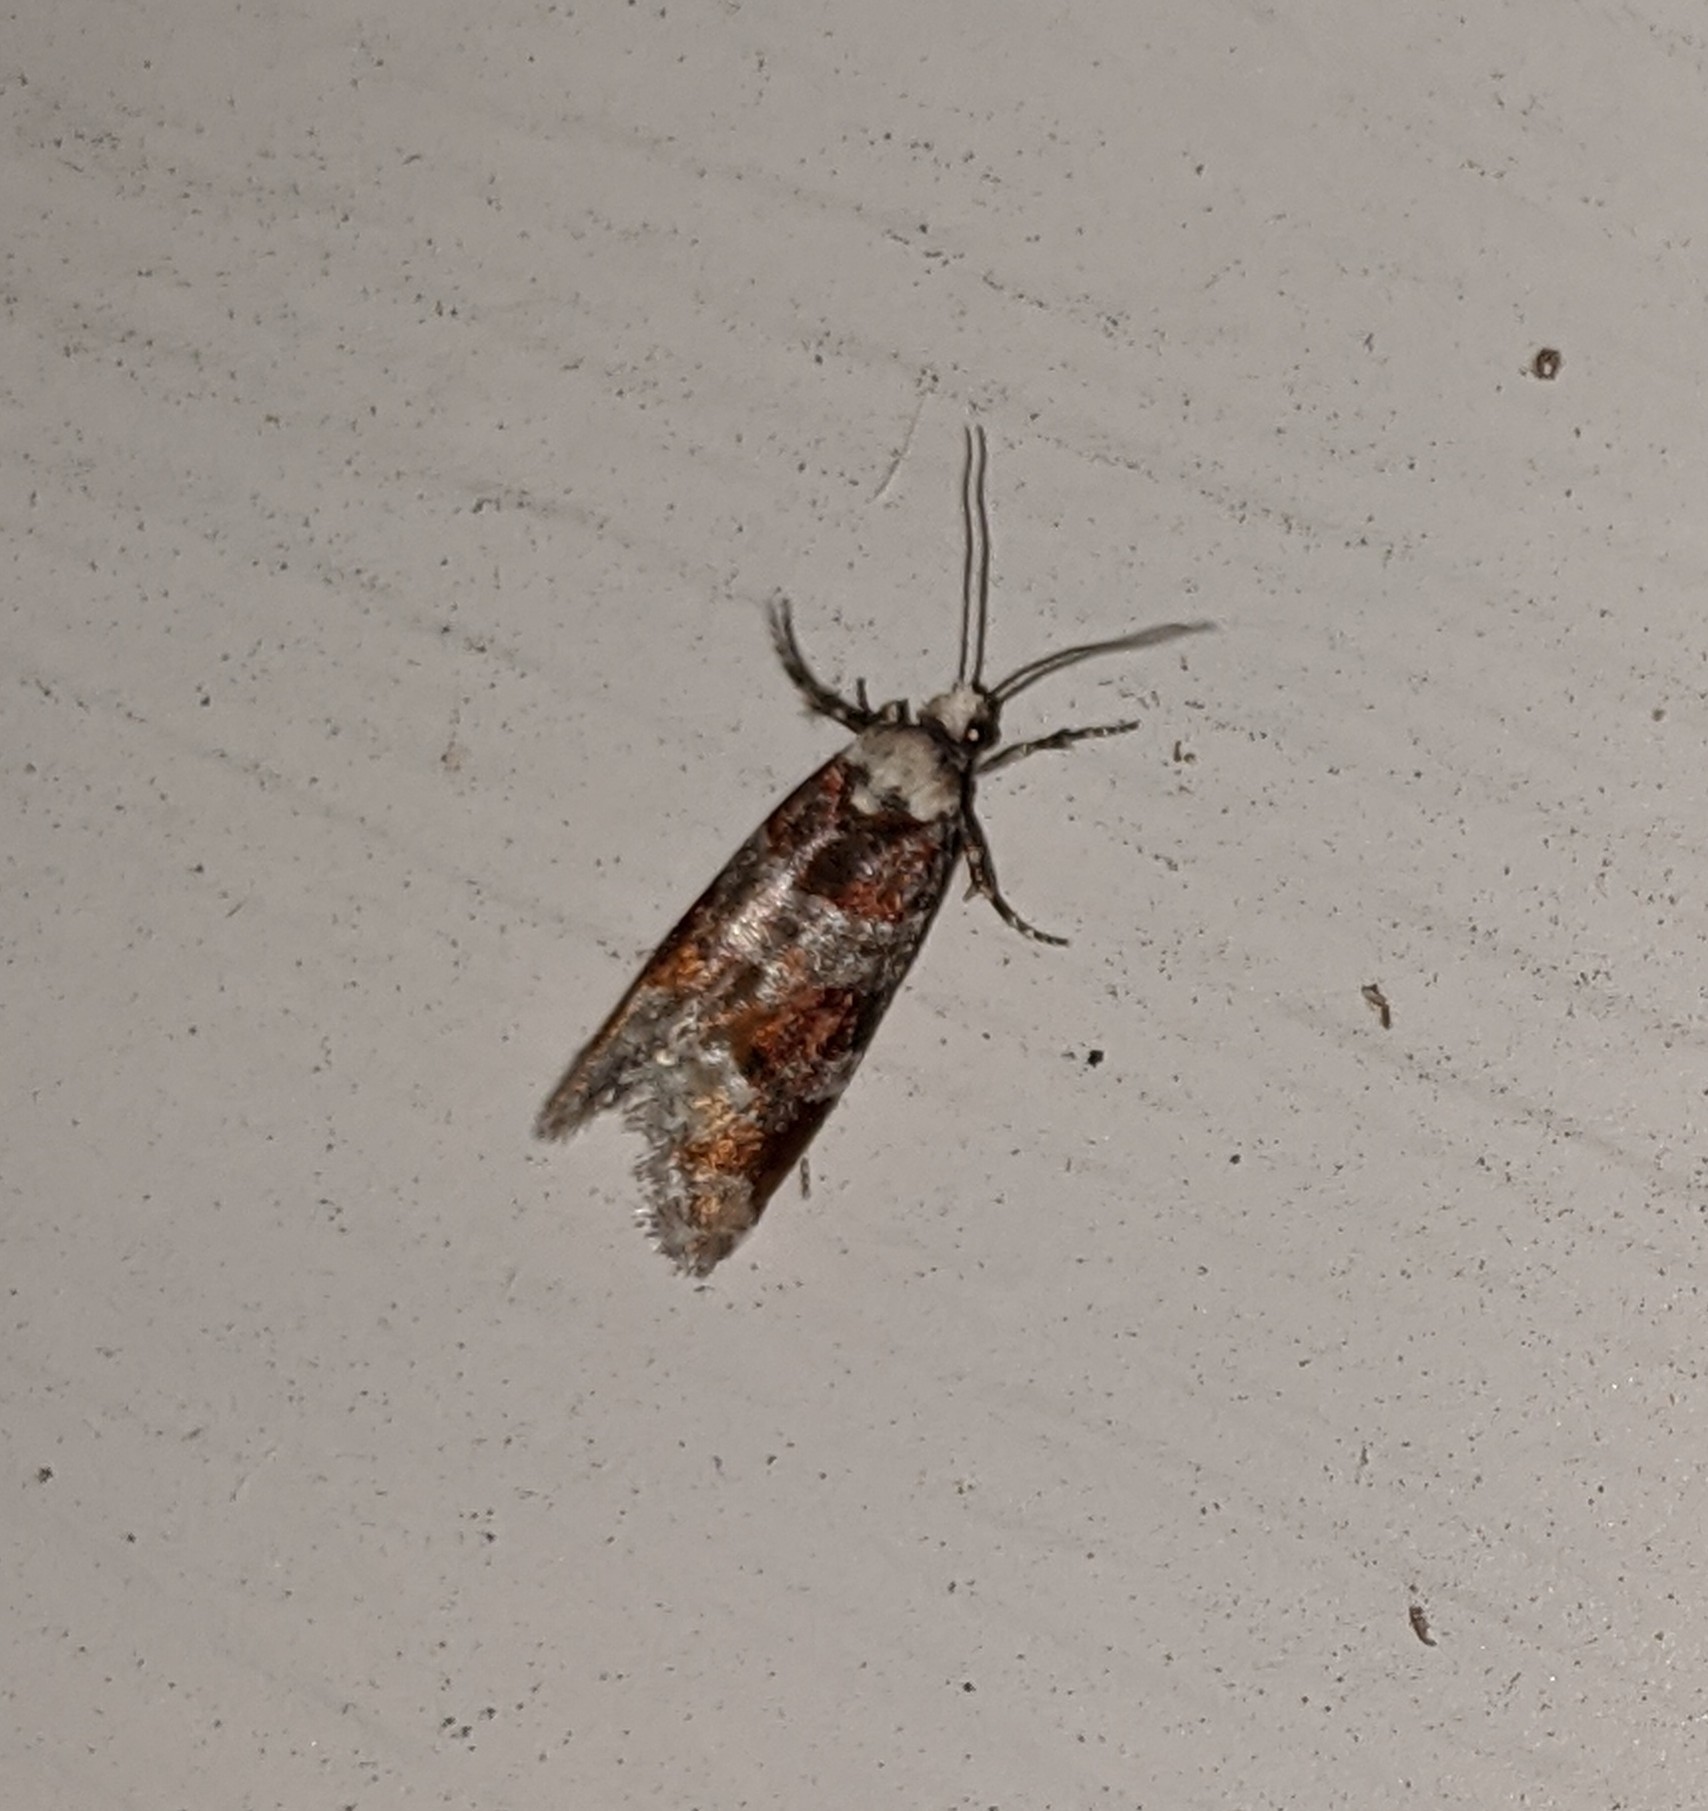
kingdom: Animalia
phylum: Arthropoda
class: Insecta
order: Lepidoptera
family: Tortricidae
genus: Eucopina
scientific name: Eucopina sonomana
